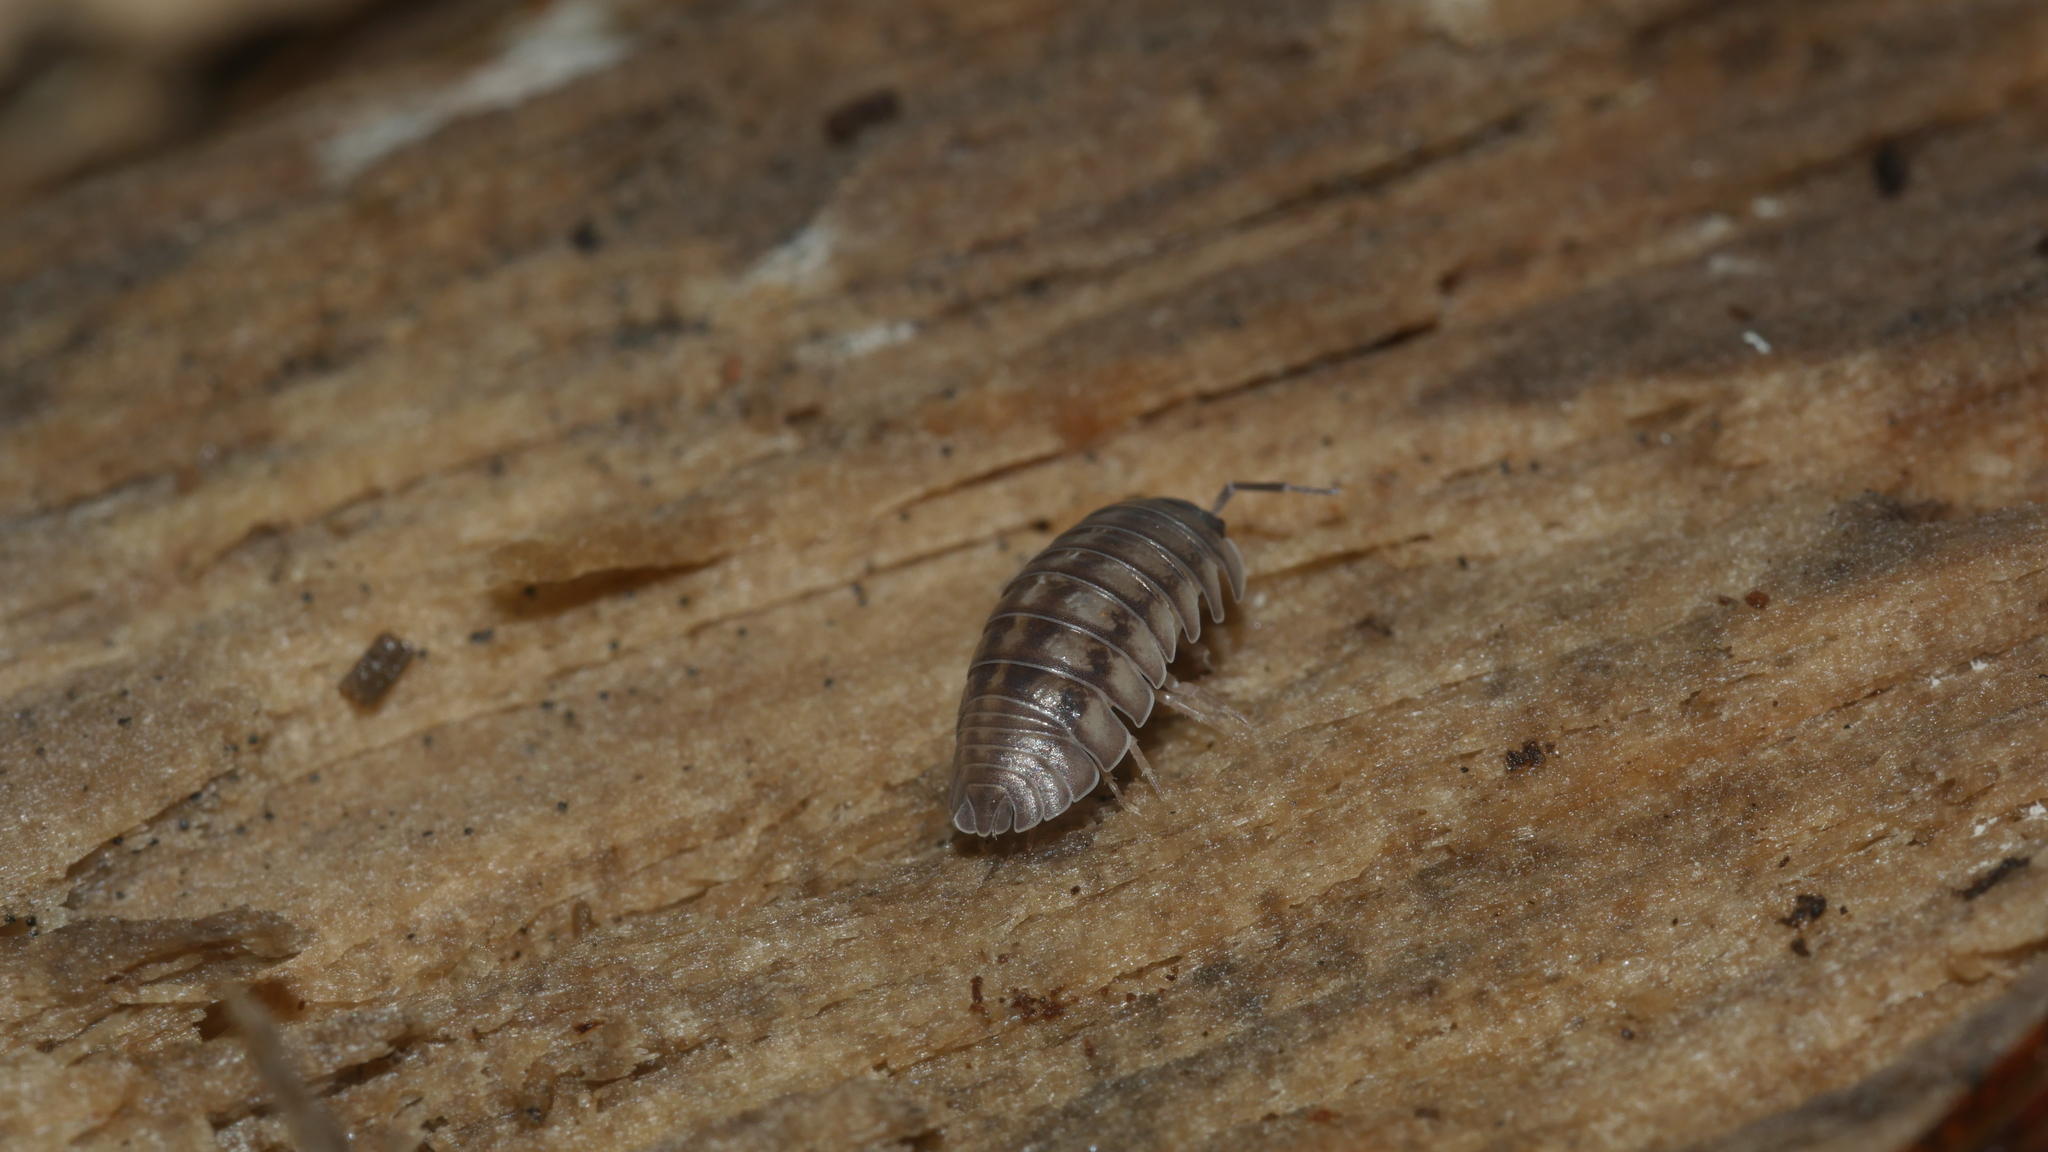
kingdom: Animalia
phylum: Arthropoda
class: Malacostraca
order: Isopoda
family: Armadillidiidae
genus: Armadillidium
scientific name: Armadillidium nasatum
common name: Isopod
